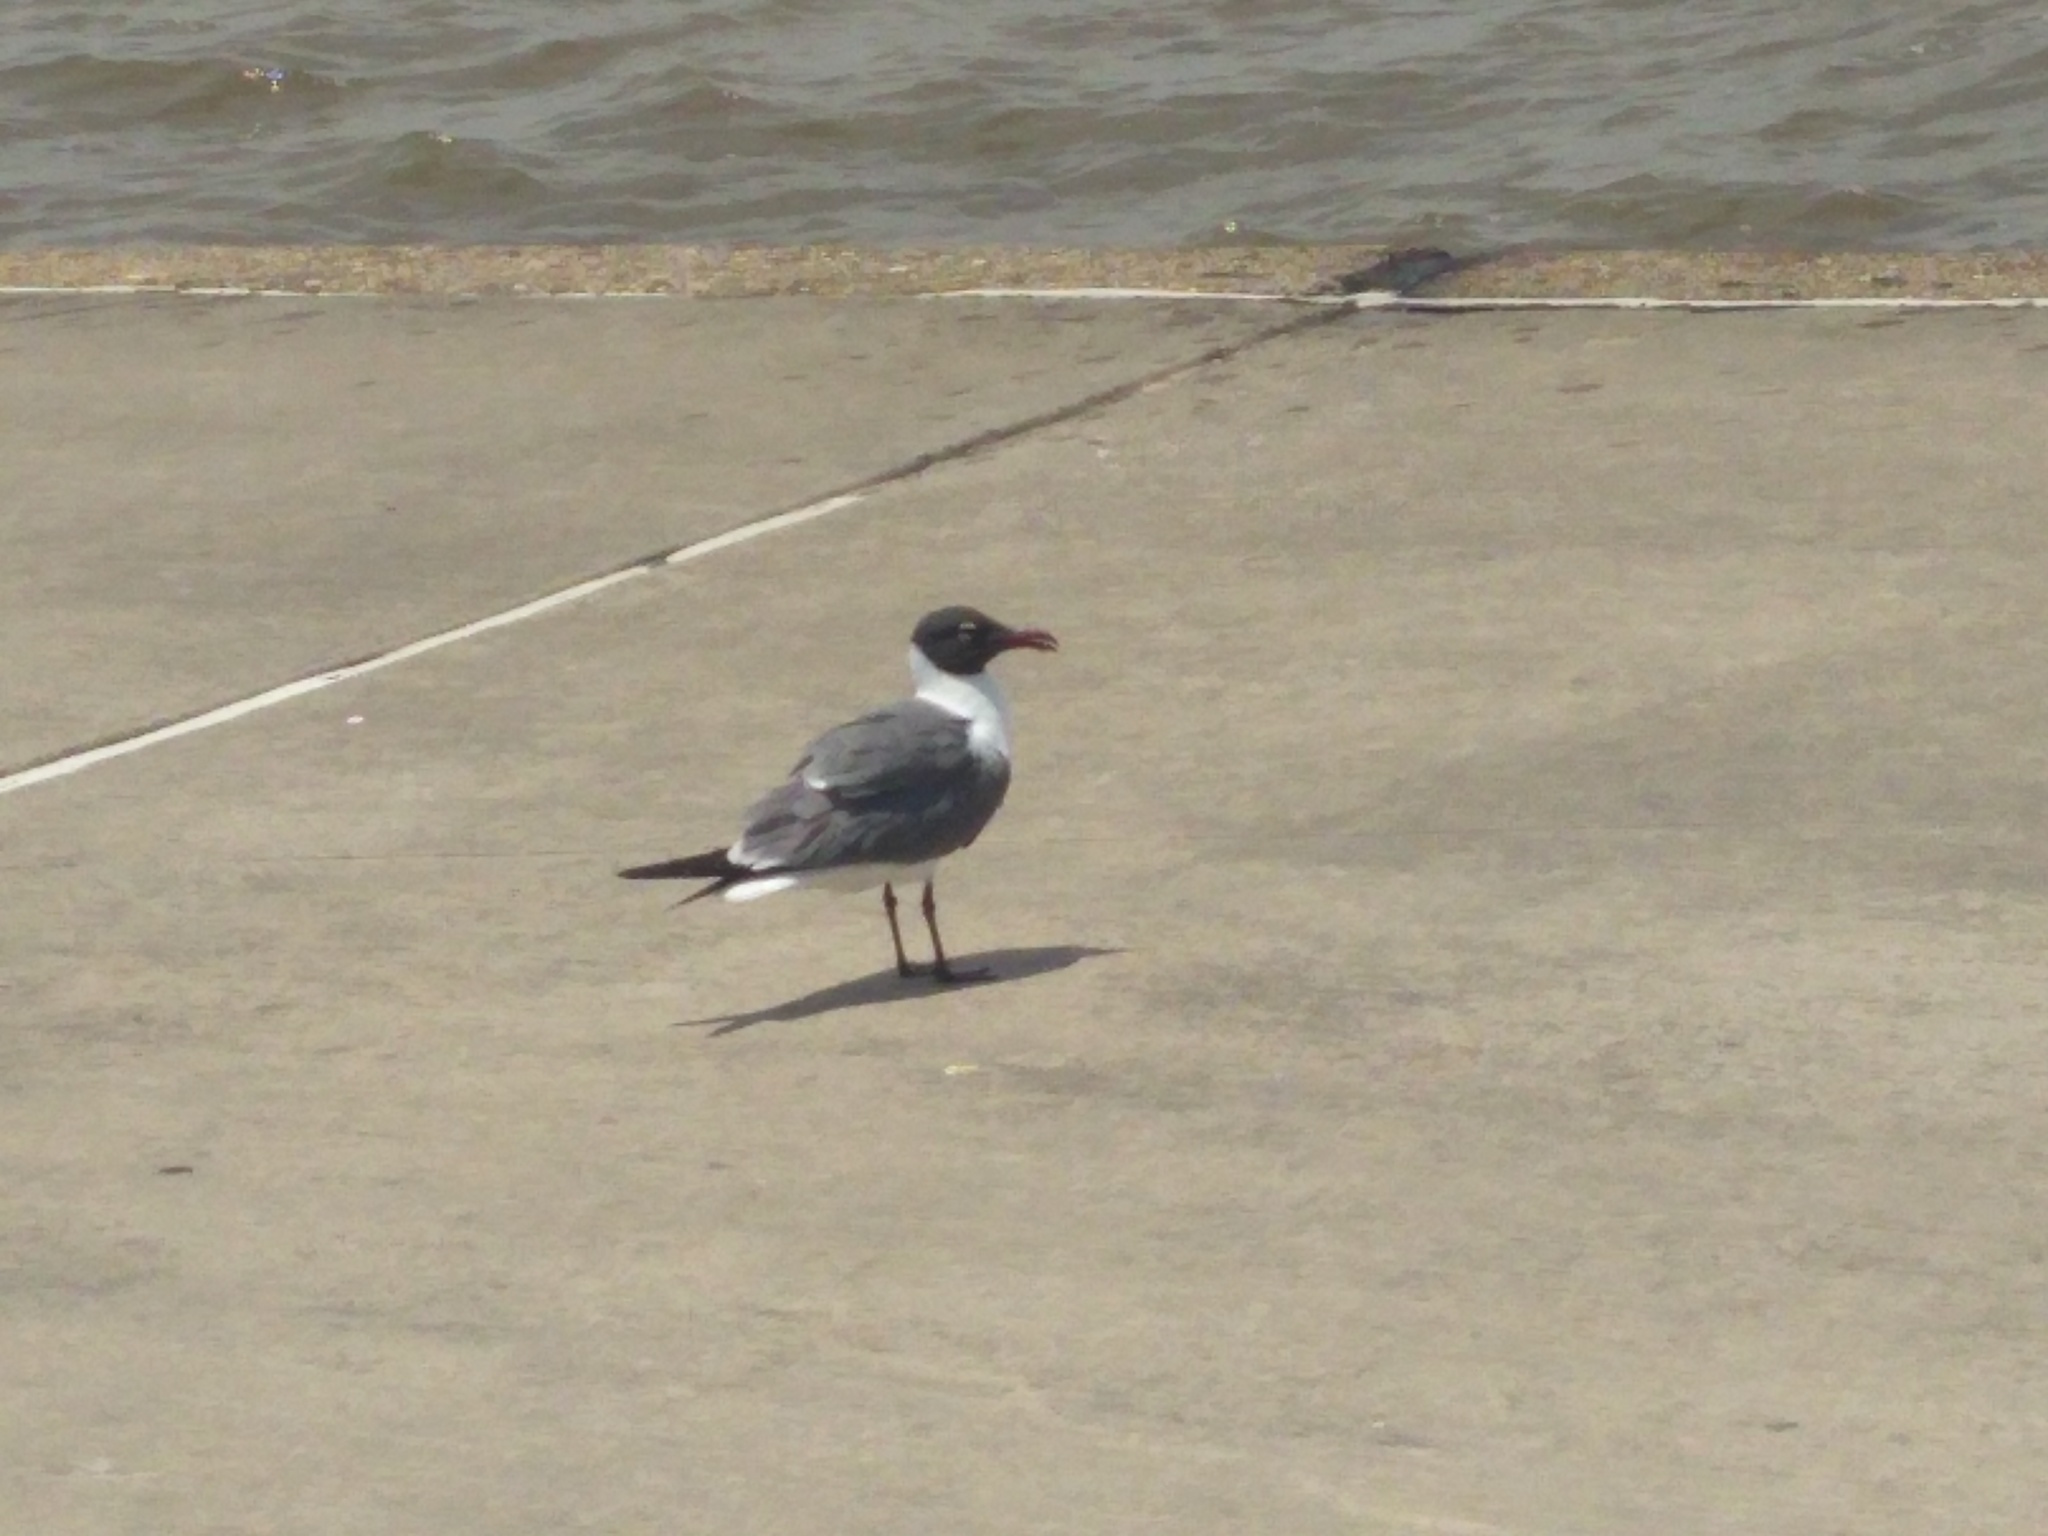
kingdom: Animalia
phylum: Chordata
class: Aves
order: Charadriiformes
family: Laridae
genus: Leucophaeus
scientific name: Leucophaeus atricilla
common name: Laughing gull
